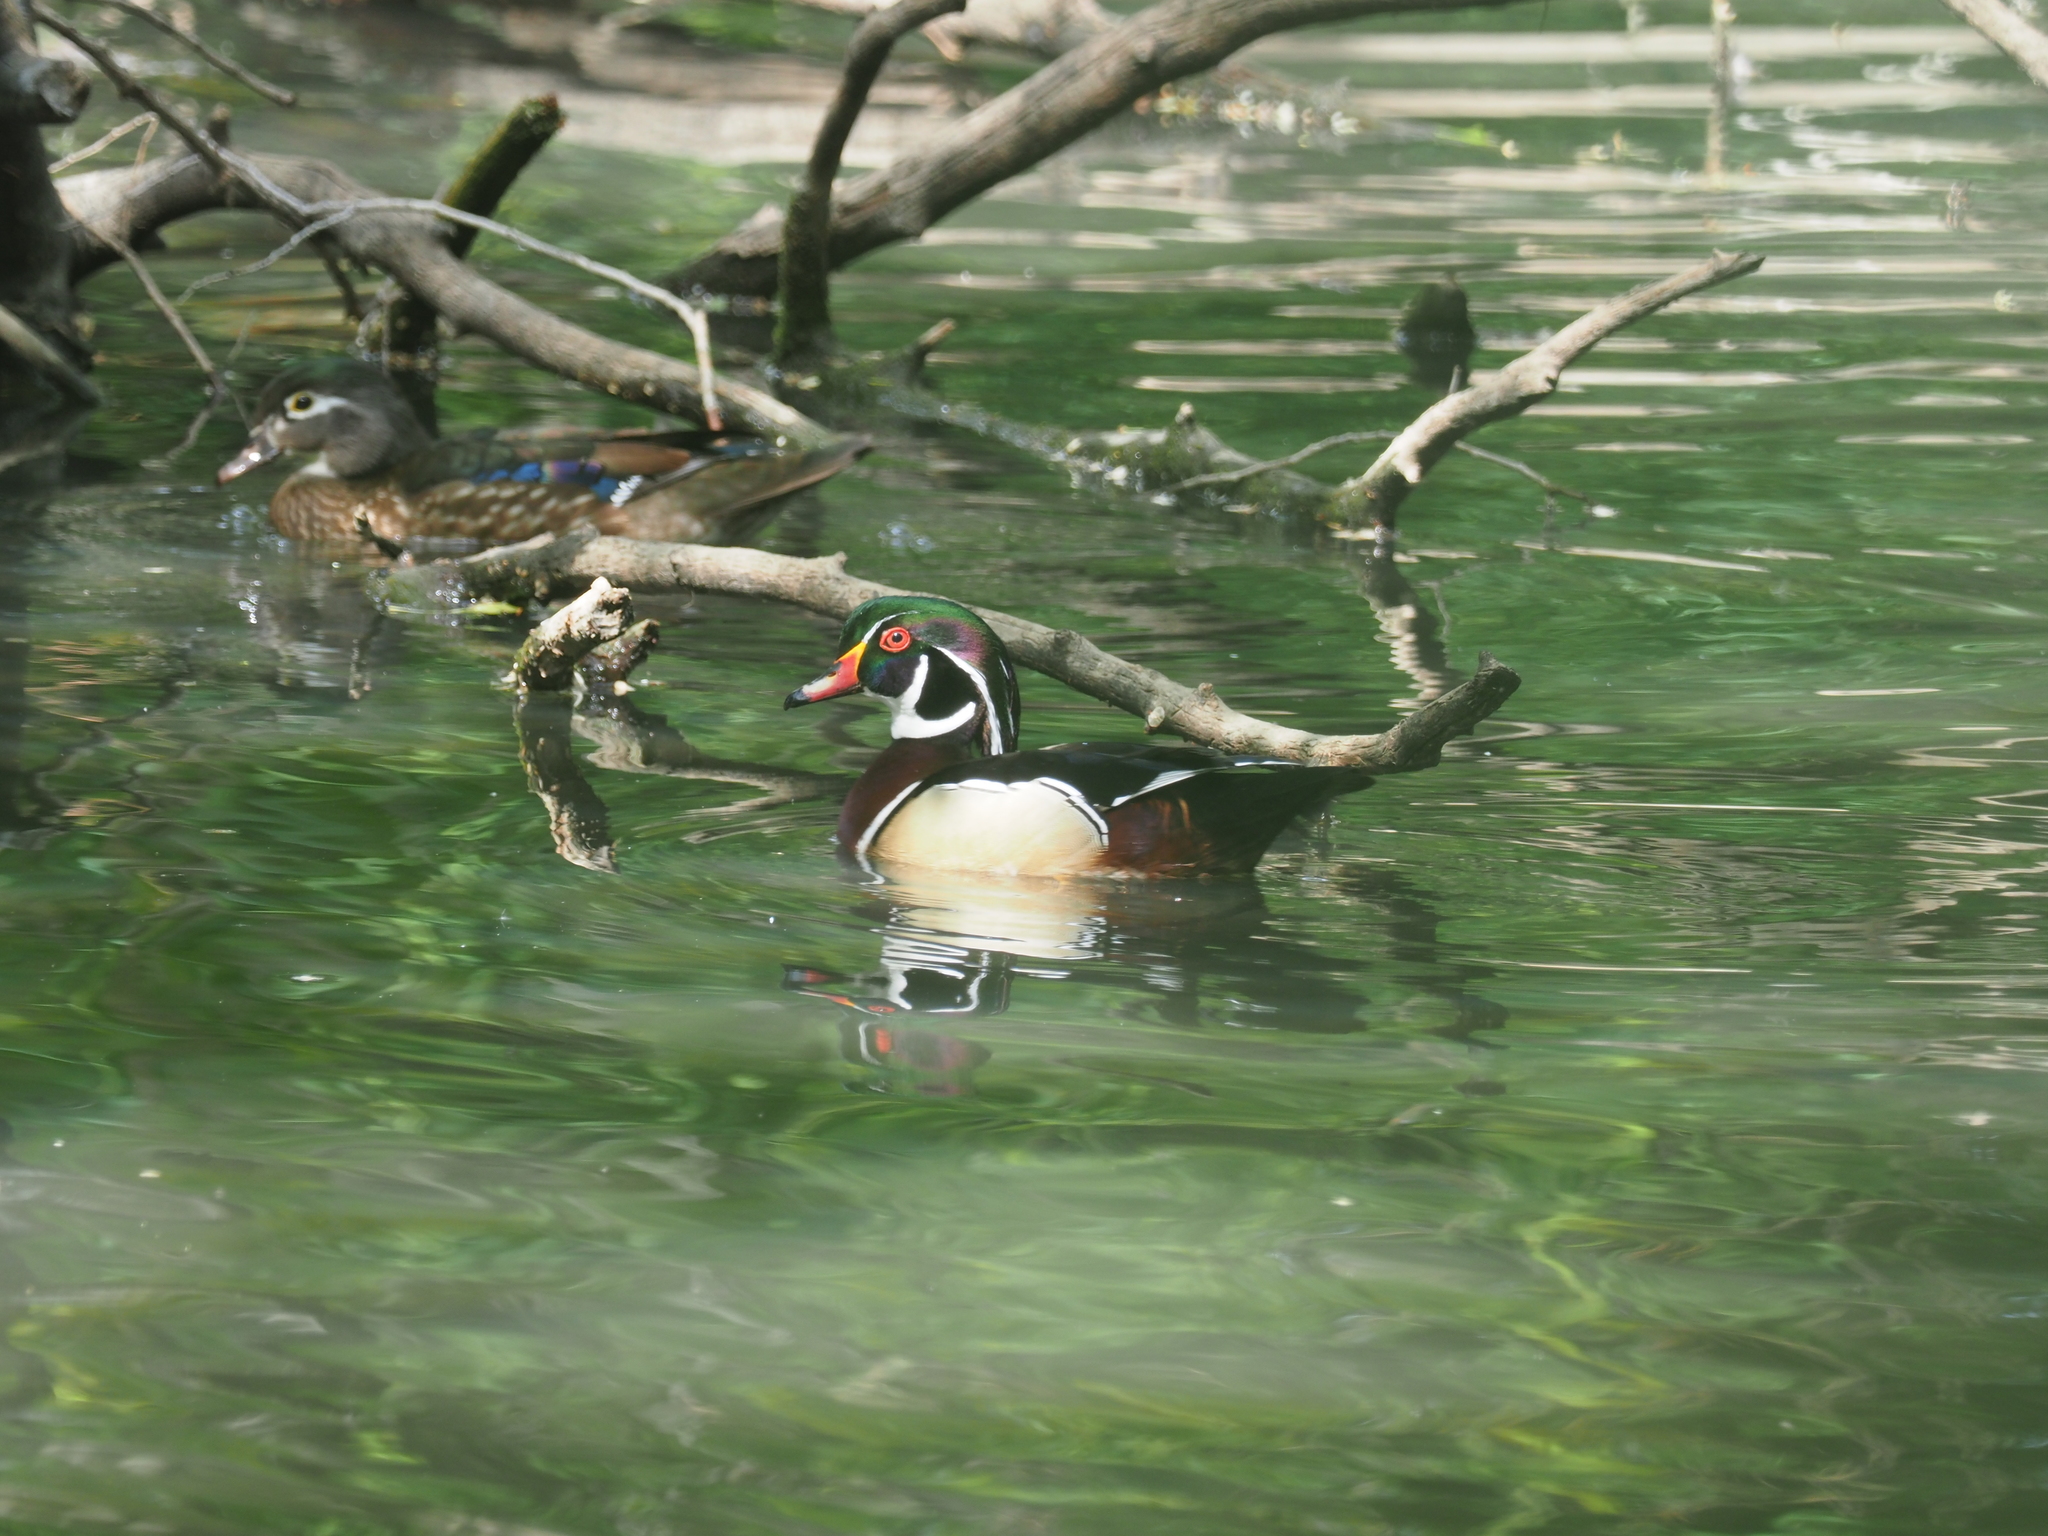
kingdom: Animalia
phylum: Chordata
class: Aves
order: Anseriformes
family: Anatidae
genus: Aix
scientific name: Aix sponsa
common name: Wood duck
